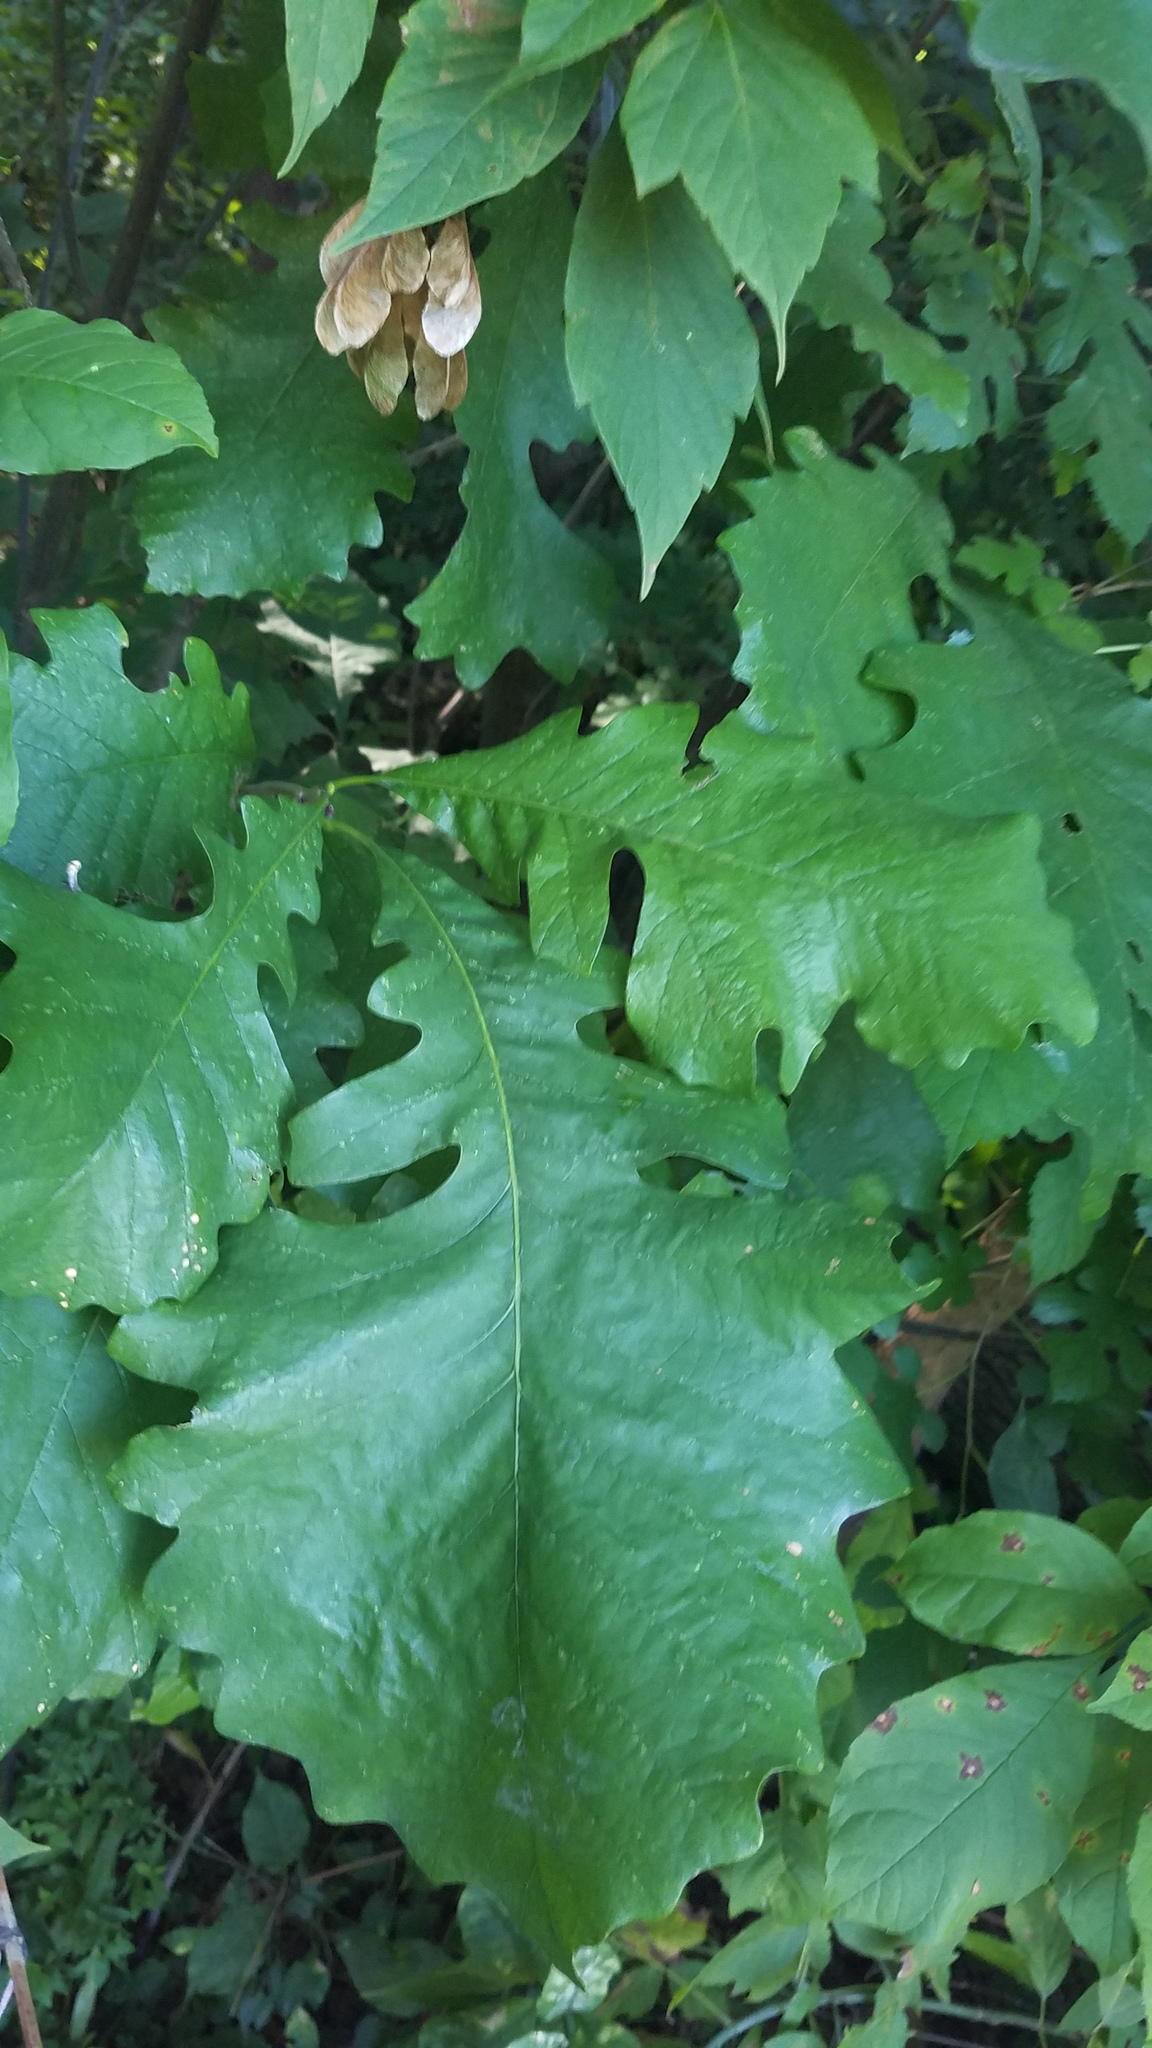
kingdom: Plantae
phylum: Tracheophyta
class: Magnoliopsida
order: Fagales
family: Fagaceae
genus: Quercus
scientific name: Quercus macrocarpa
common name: Bur oak
